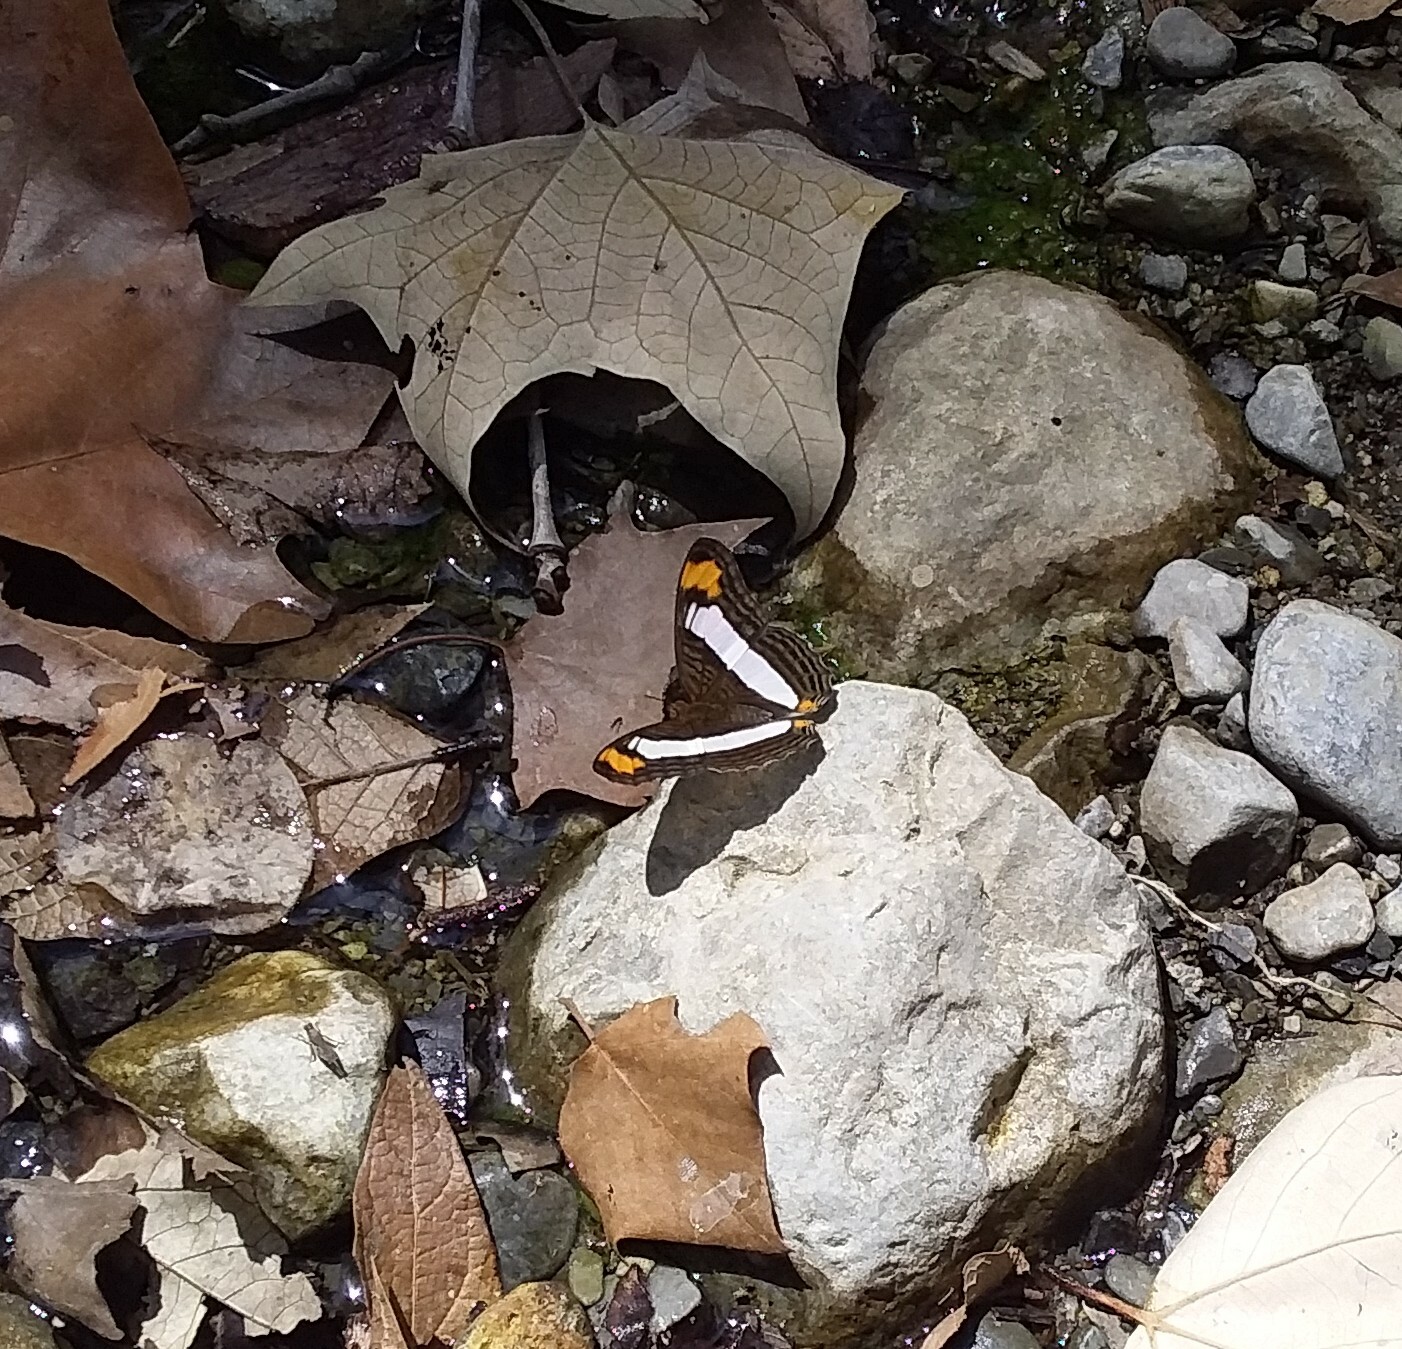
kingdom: Animalia
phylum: Arthropoda
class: Insecta
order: Lepidoptera
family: Nymphalidae
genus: Limenitis
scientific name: Limenitis Adelpha basiloides
